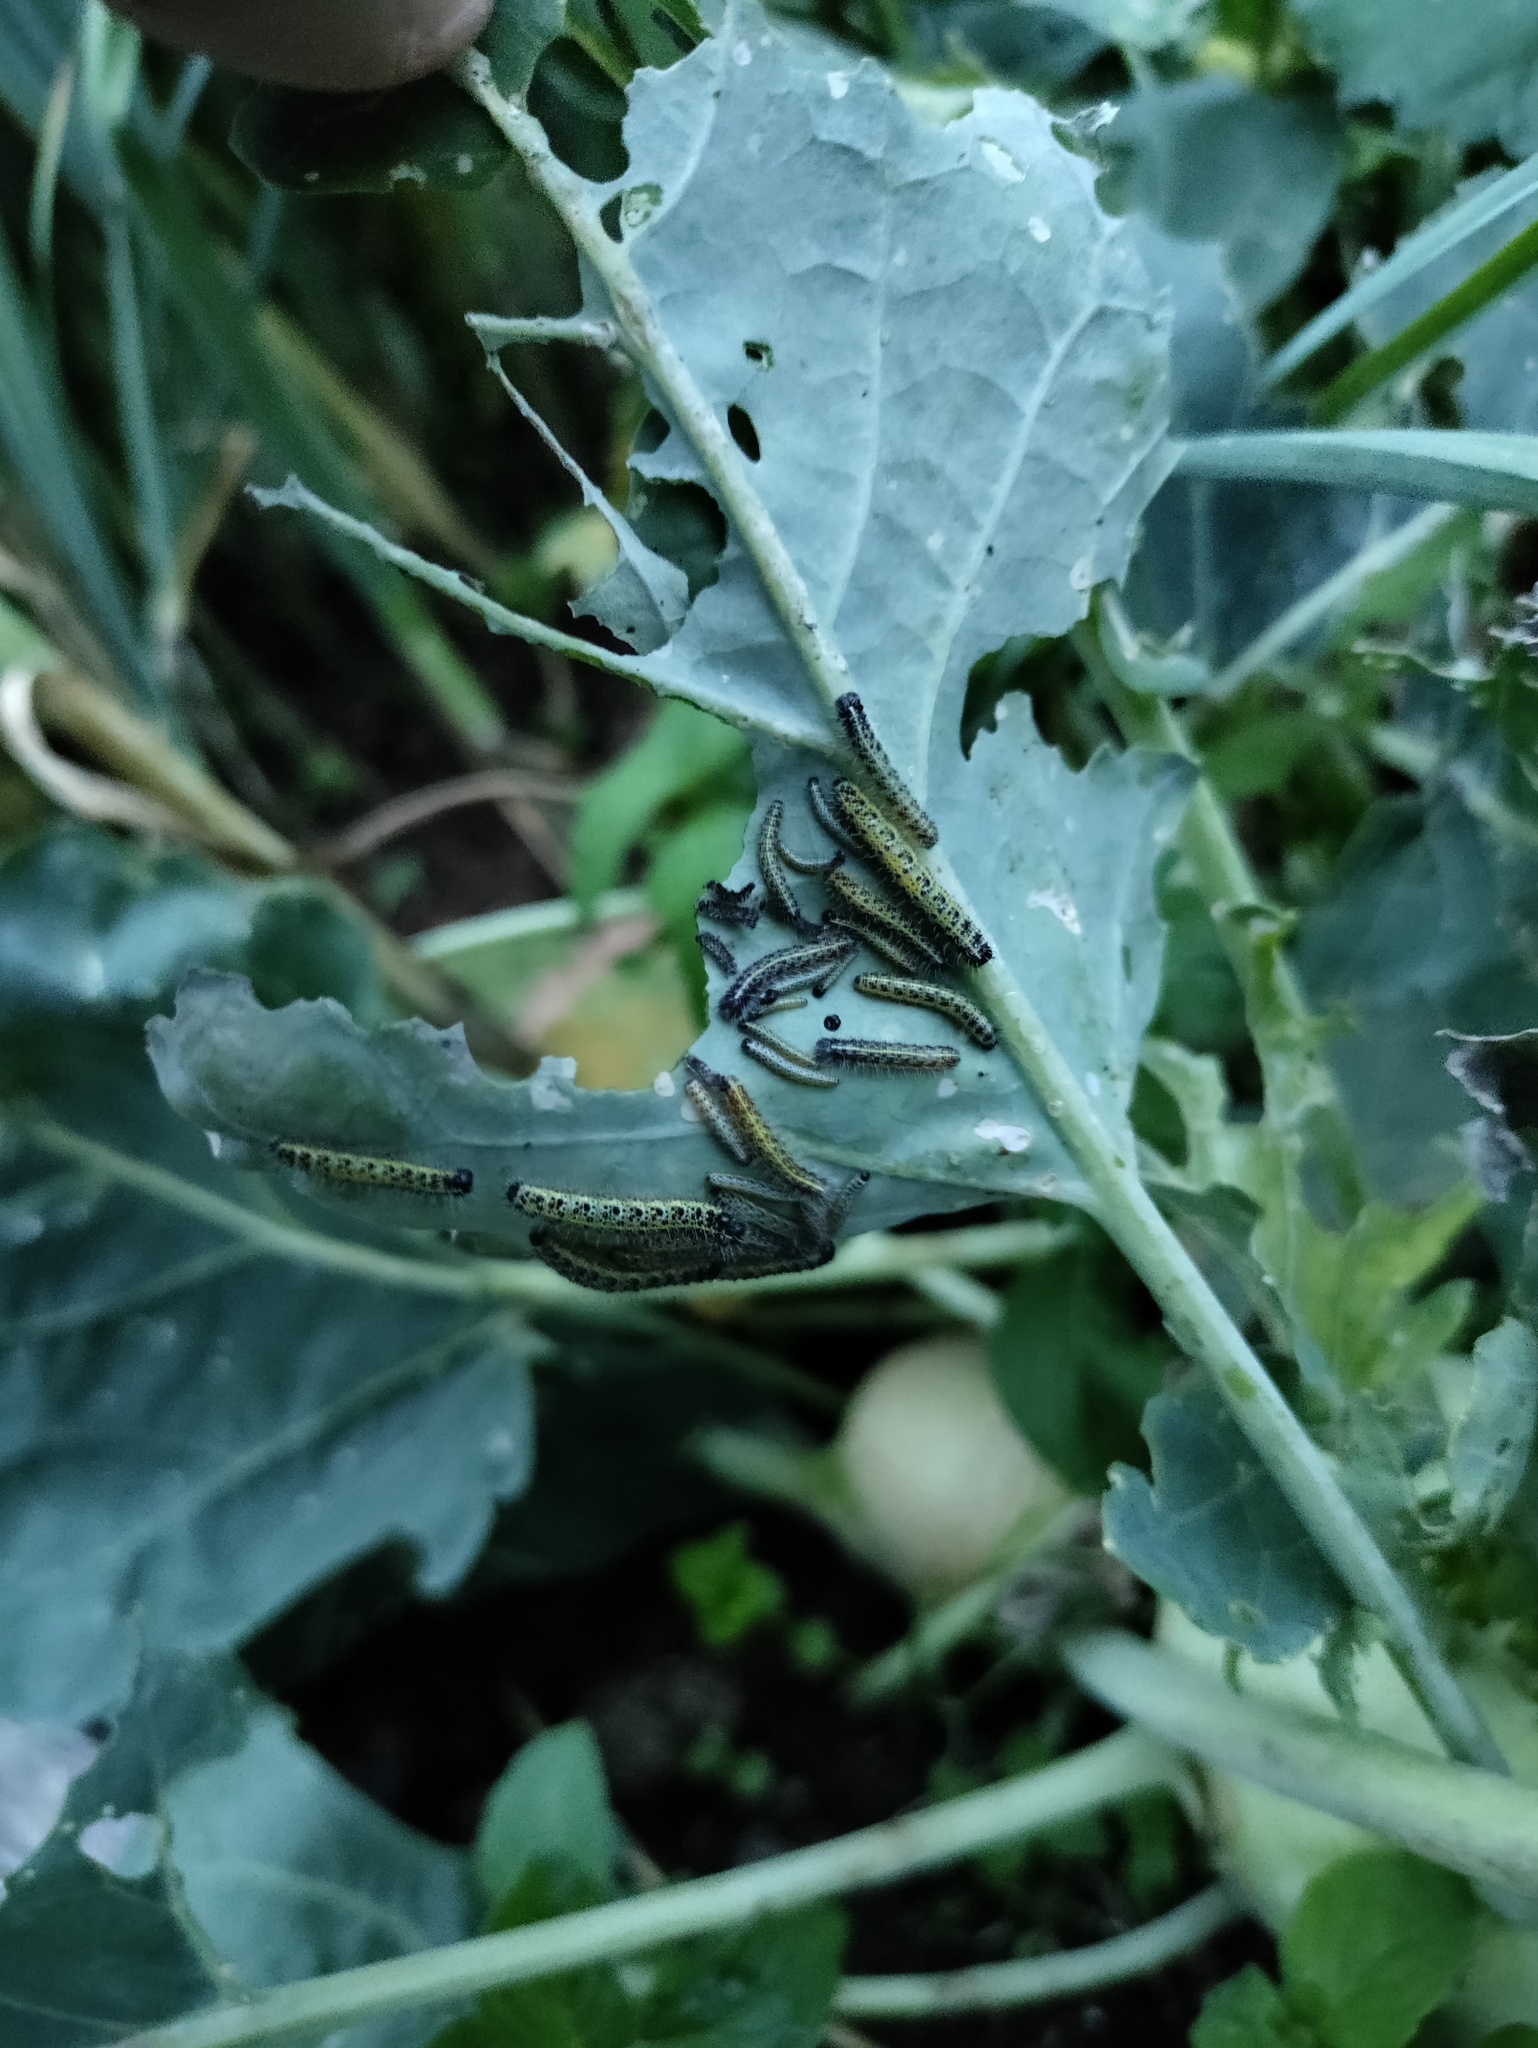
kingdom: Animalia
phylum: Arthropoda
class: Insecta
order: Lepidoptera
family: Pieridae
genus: Pieris
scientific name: Pieris brassicae
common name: Large white
